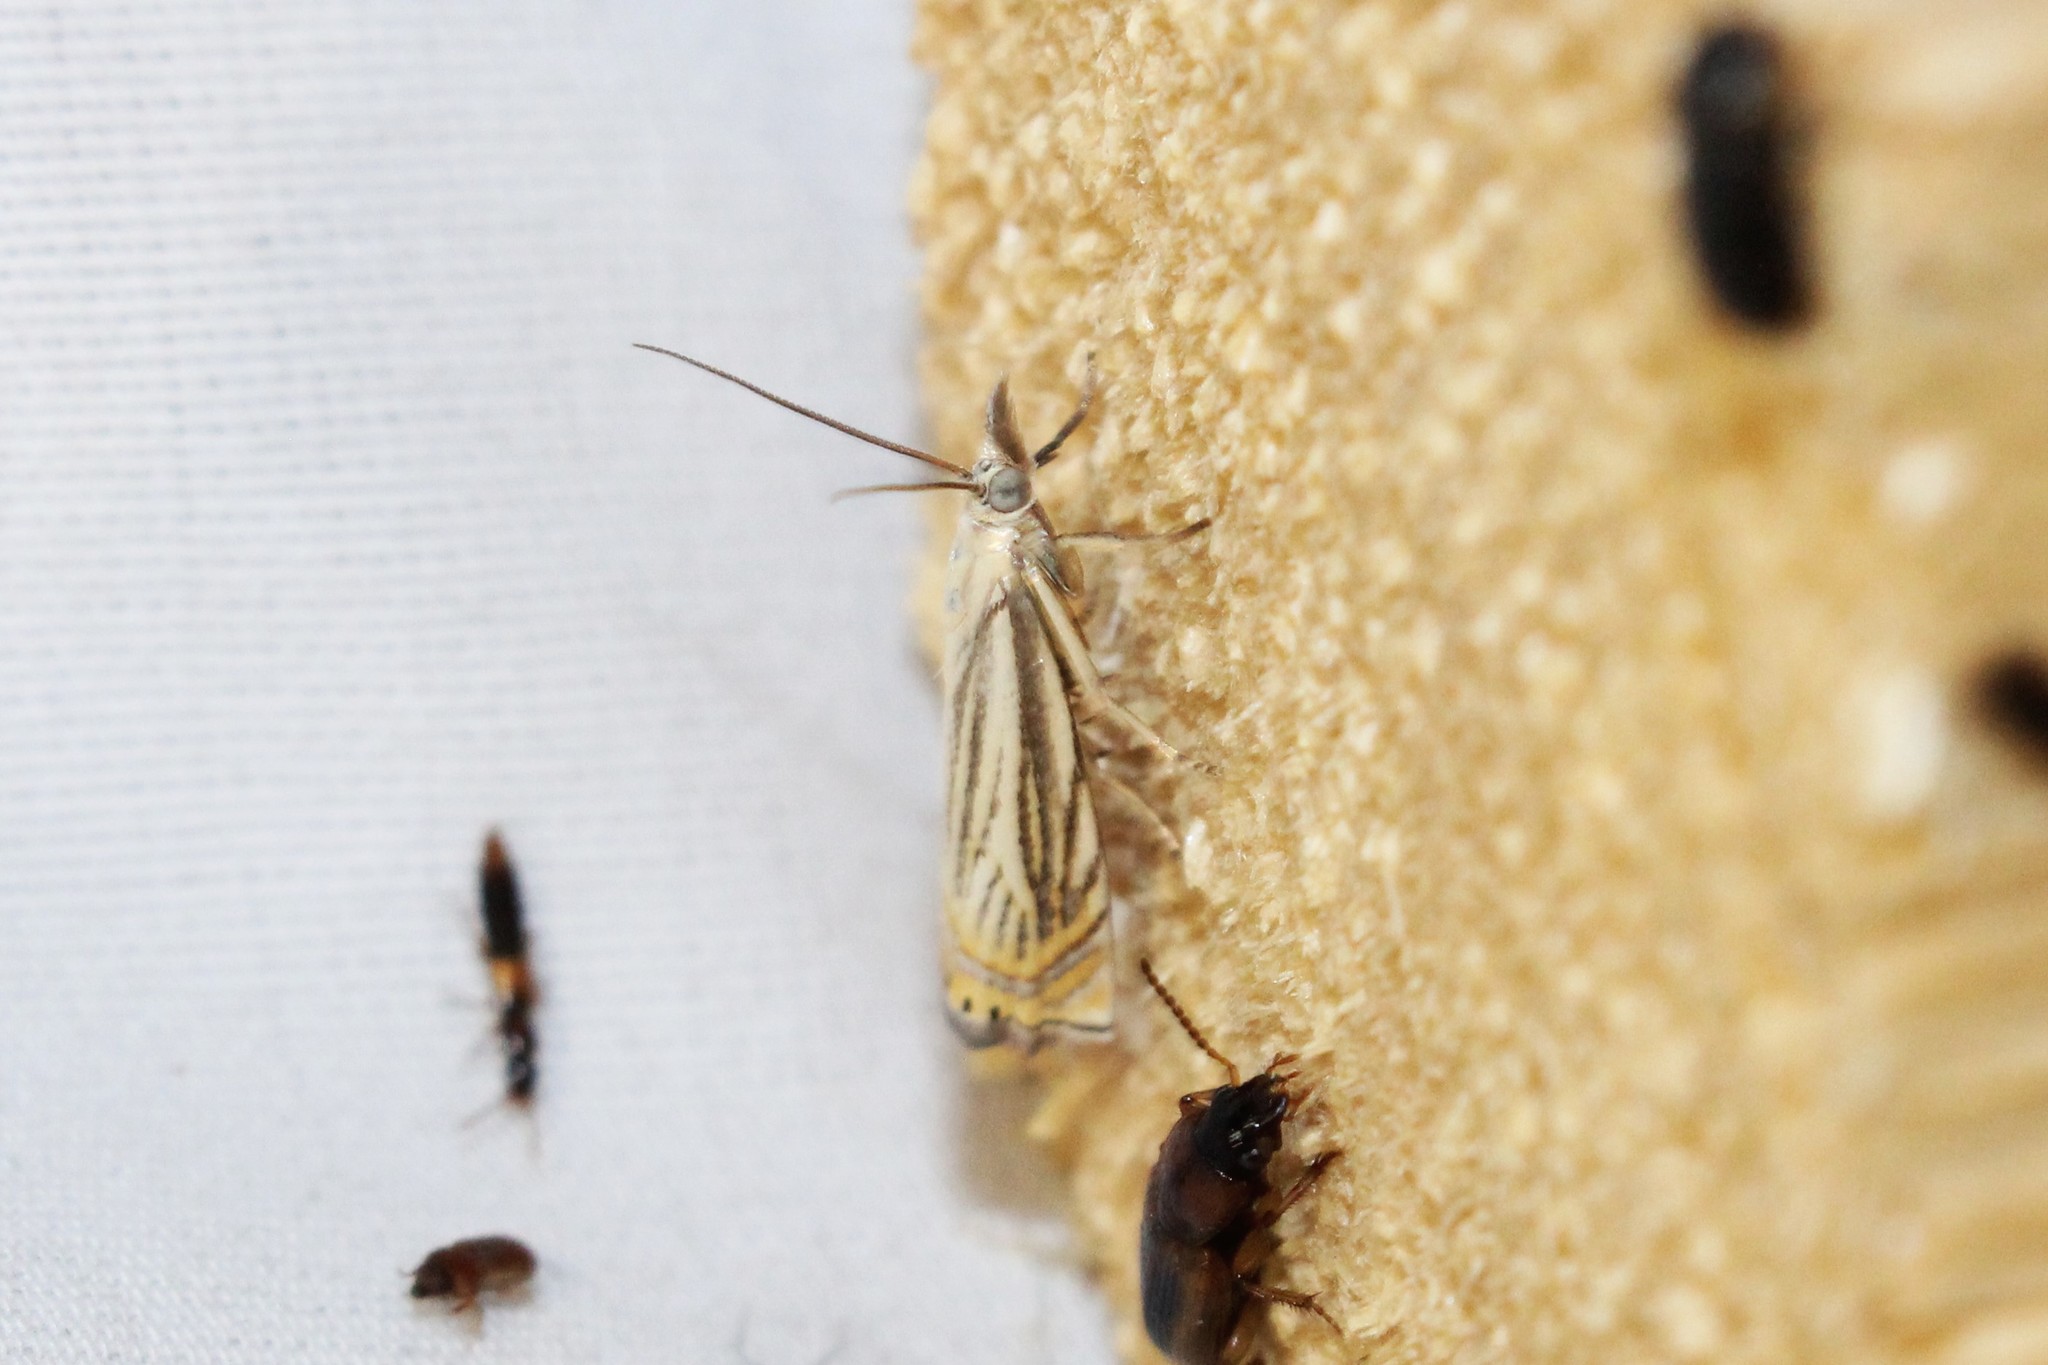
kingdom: Animalia
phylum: Arthropoda
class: Insecta
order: Lepidoptera
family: Crambidae
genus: Chrysoteuchia
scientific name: Chrysoteuchia topiarius
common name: Topiary grass-veneer
